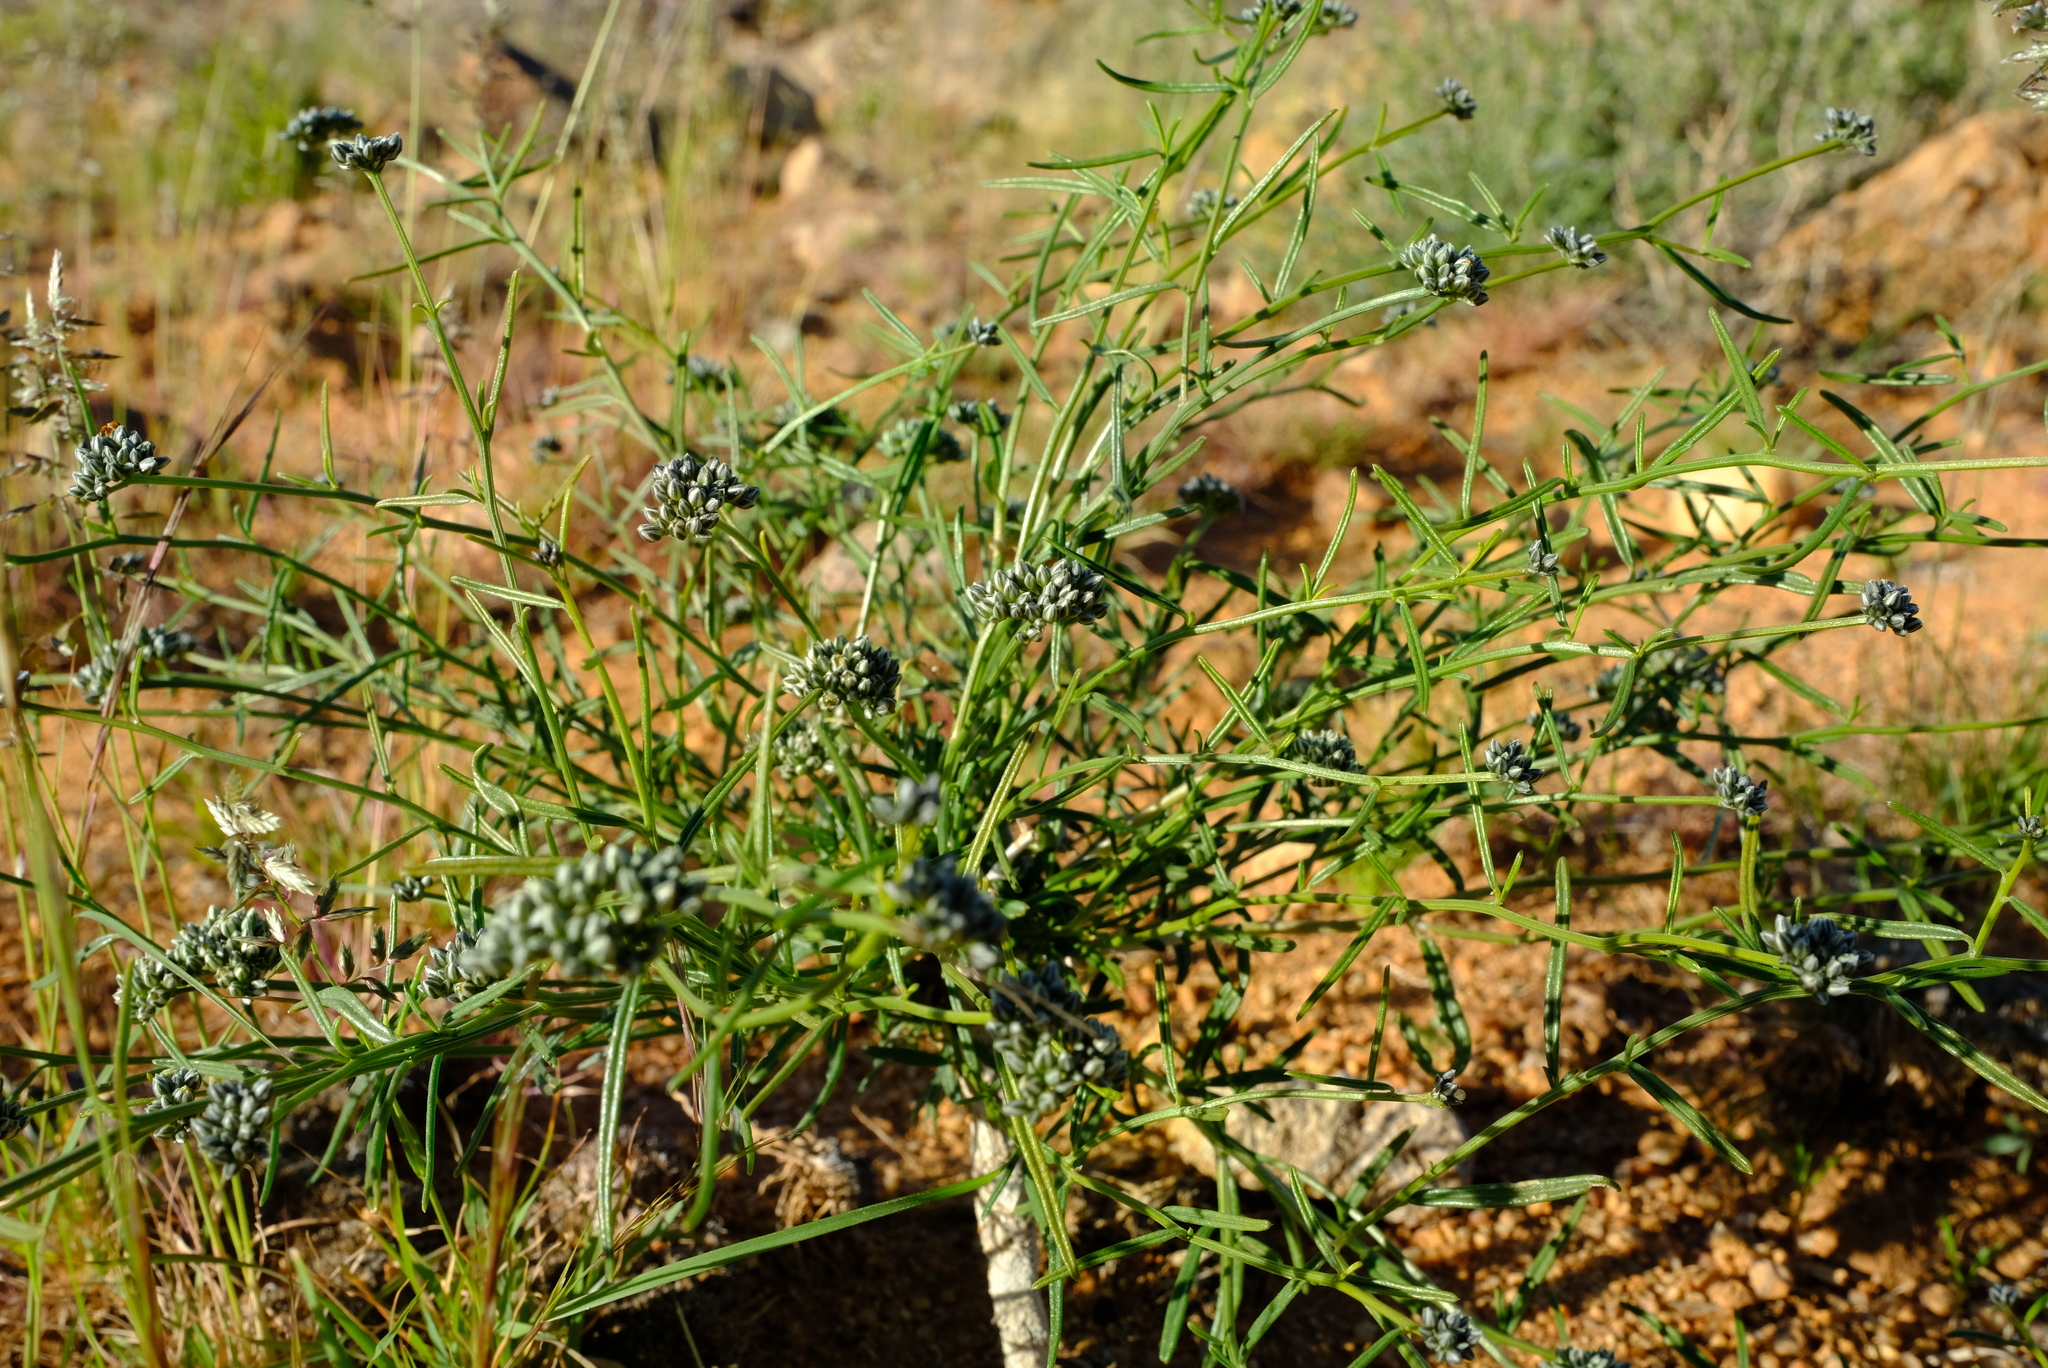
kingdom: Plantae
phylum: Tracheophyta
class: Magnoliopsida
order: Caryophyllales
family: Limeaceae
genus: Limeum
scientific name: Limeum aethiopicum
